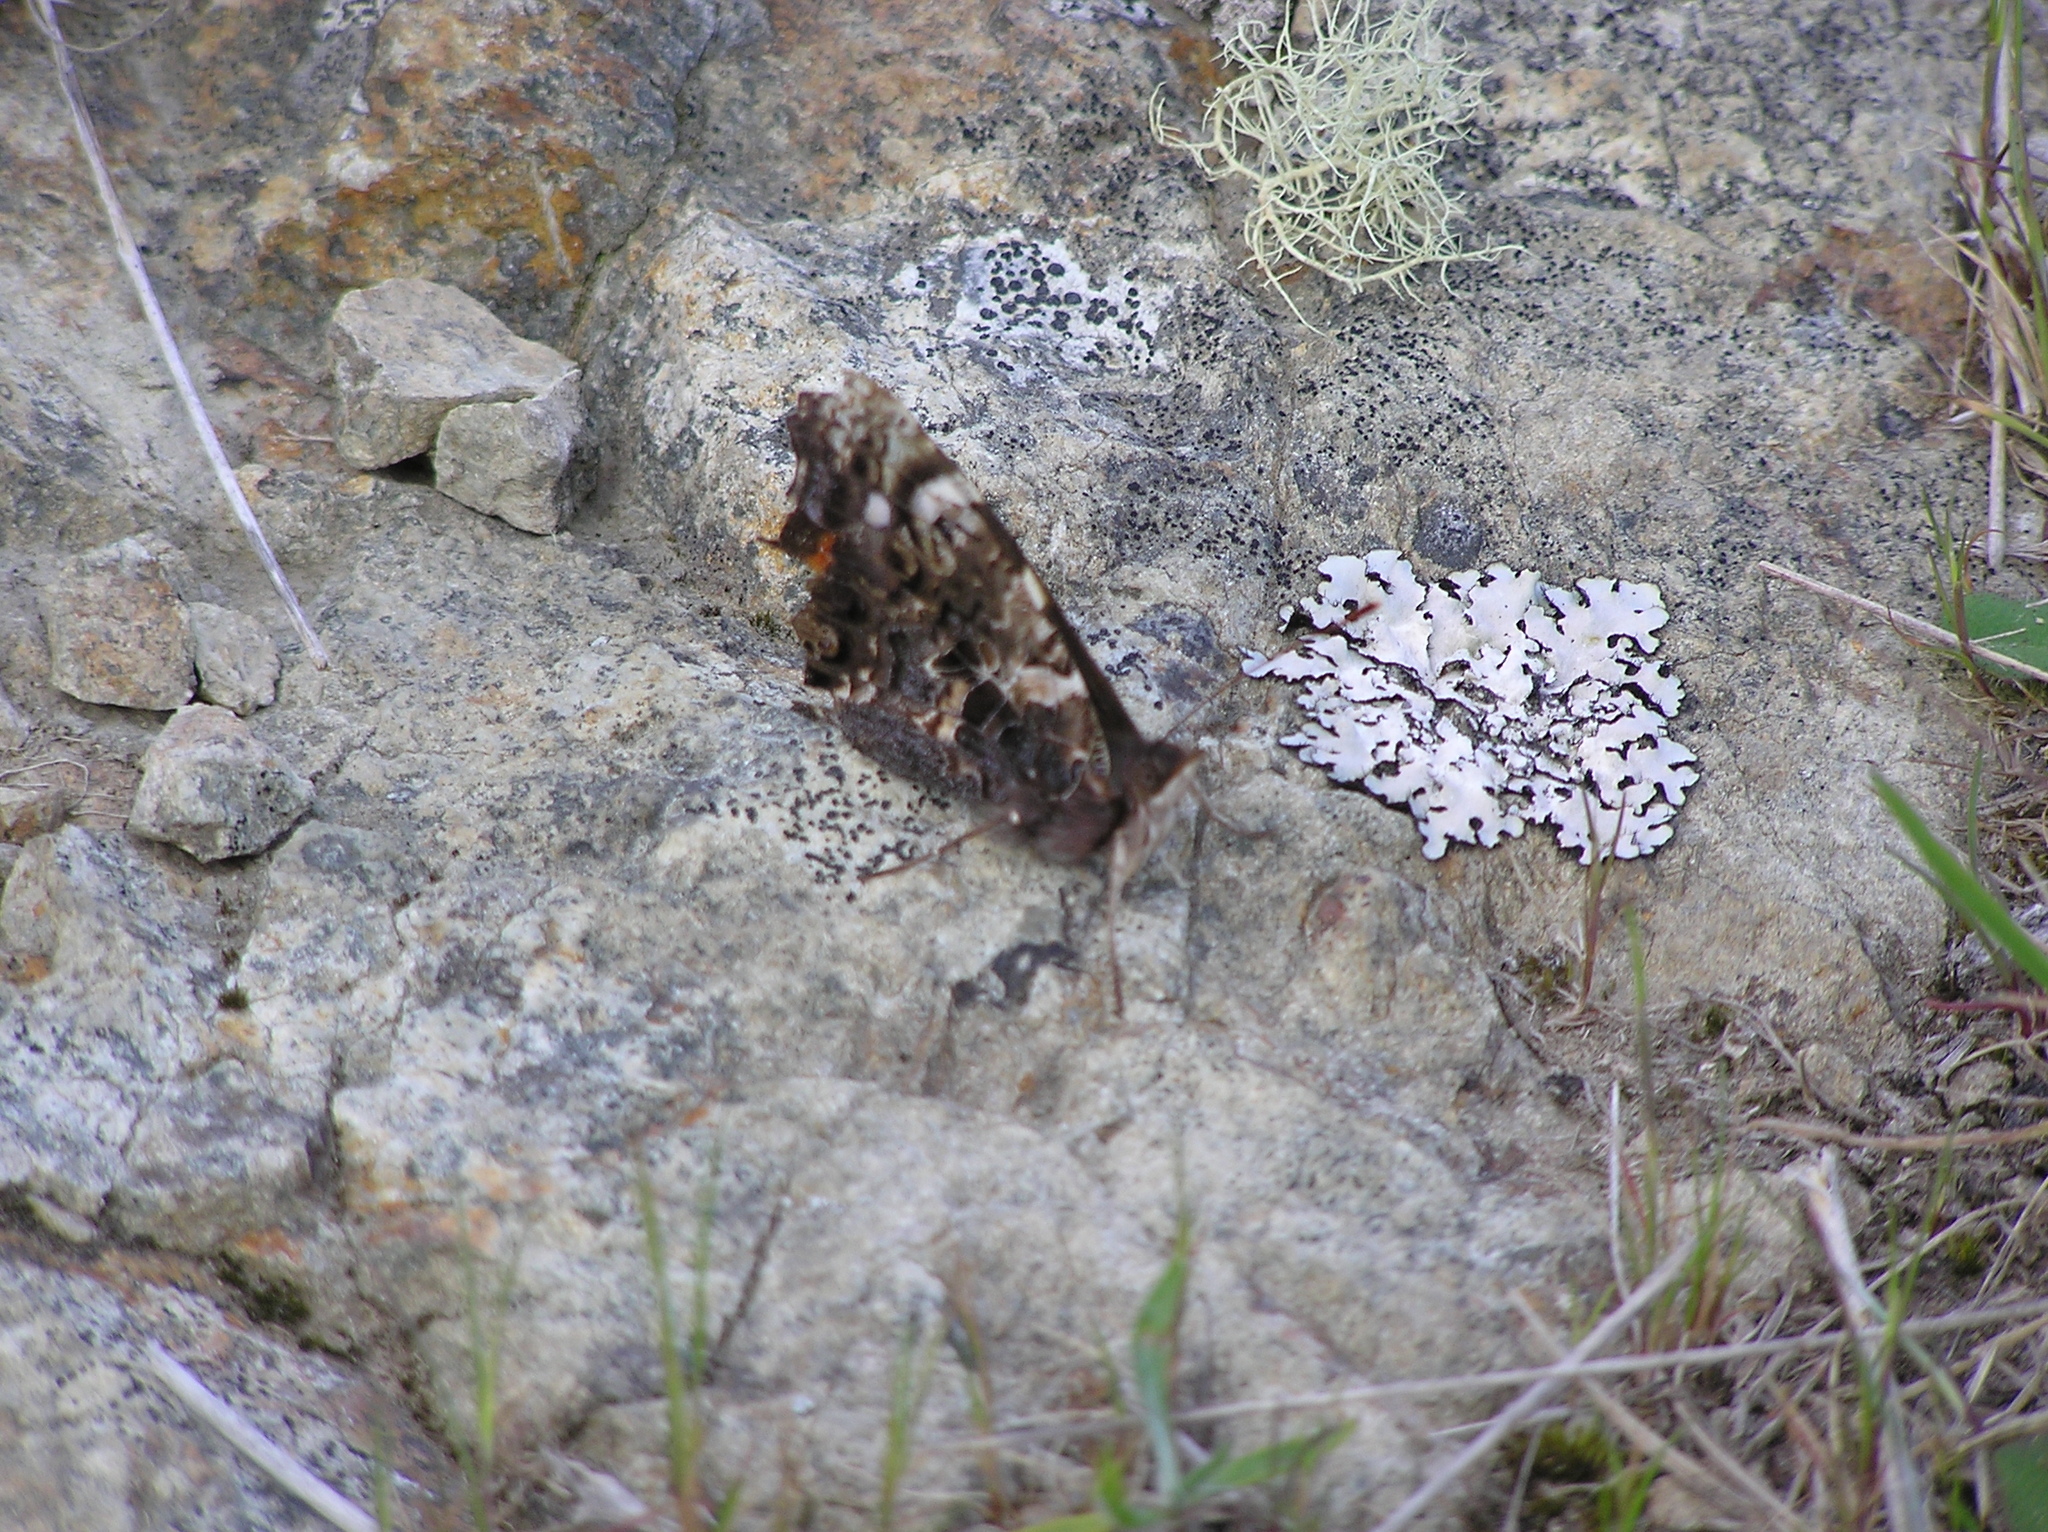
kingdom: Animalia
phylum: Arthropoda
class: Insecta
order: Lepidoptera
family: Nymphalidae
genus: Vanessa
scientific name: Vanessa gonerilla
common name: New zealand red admiral
